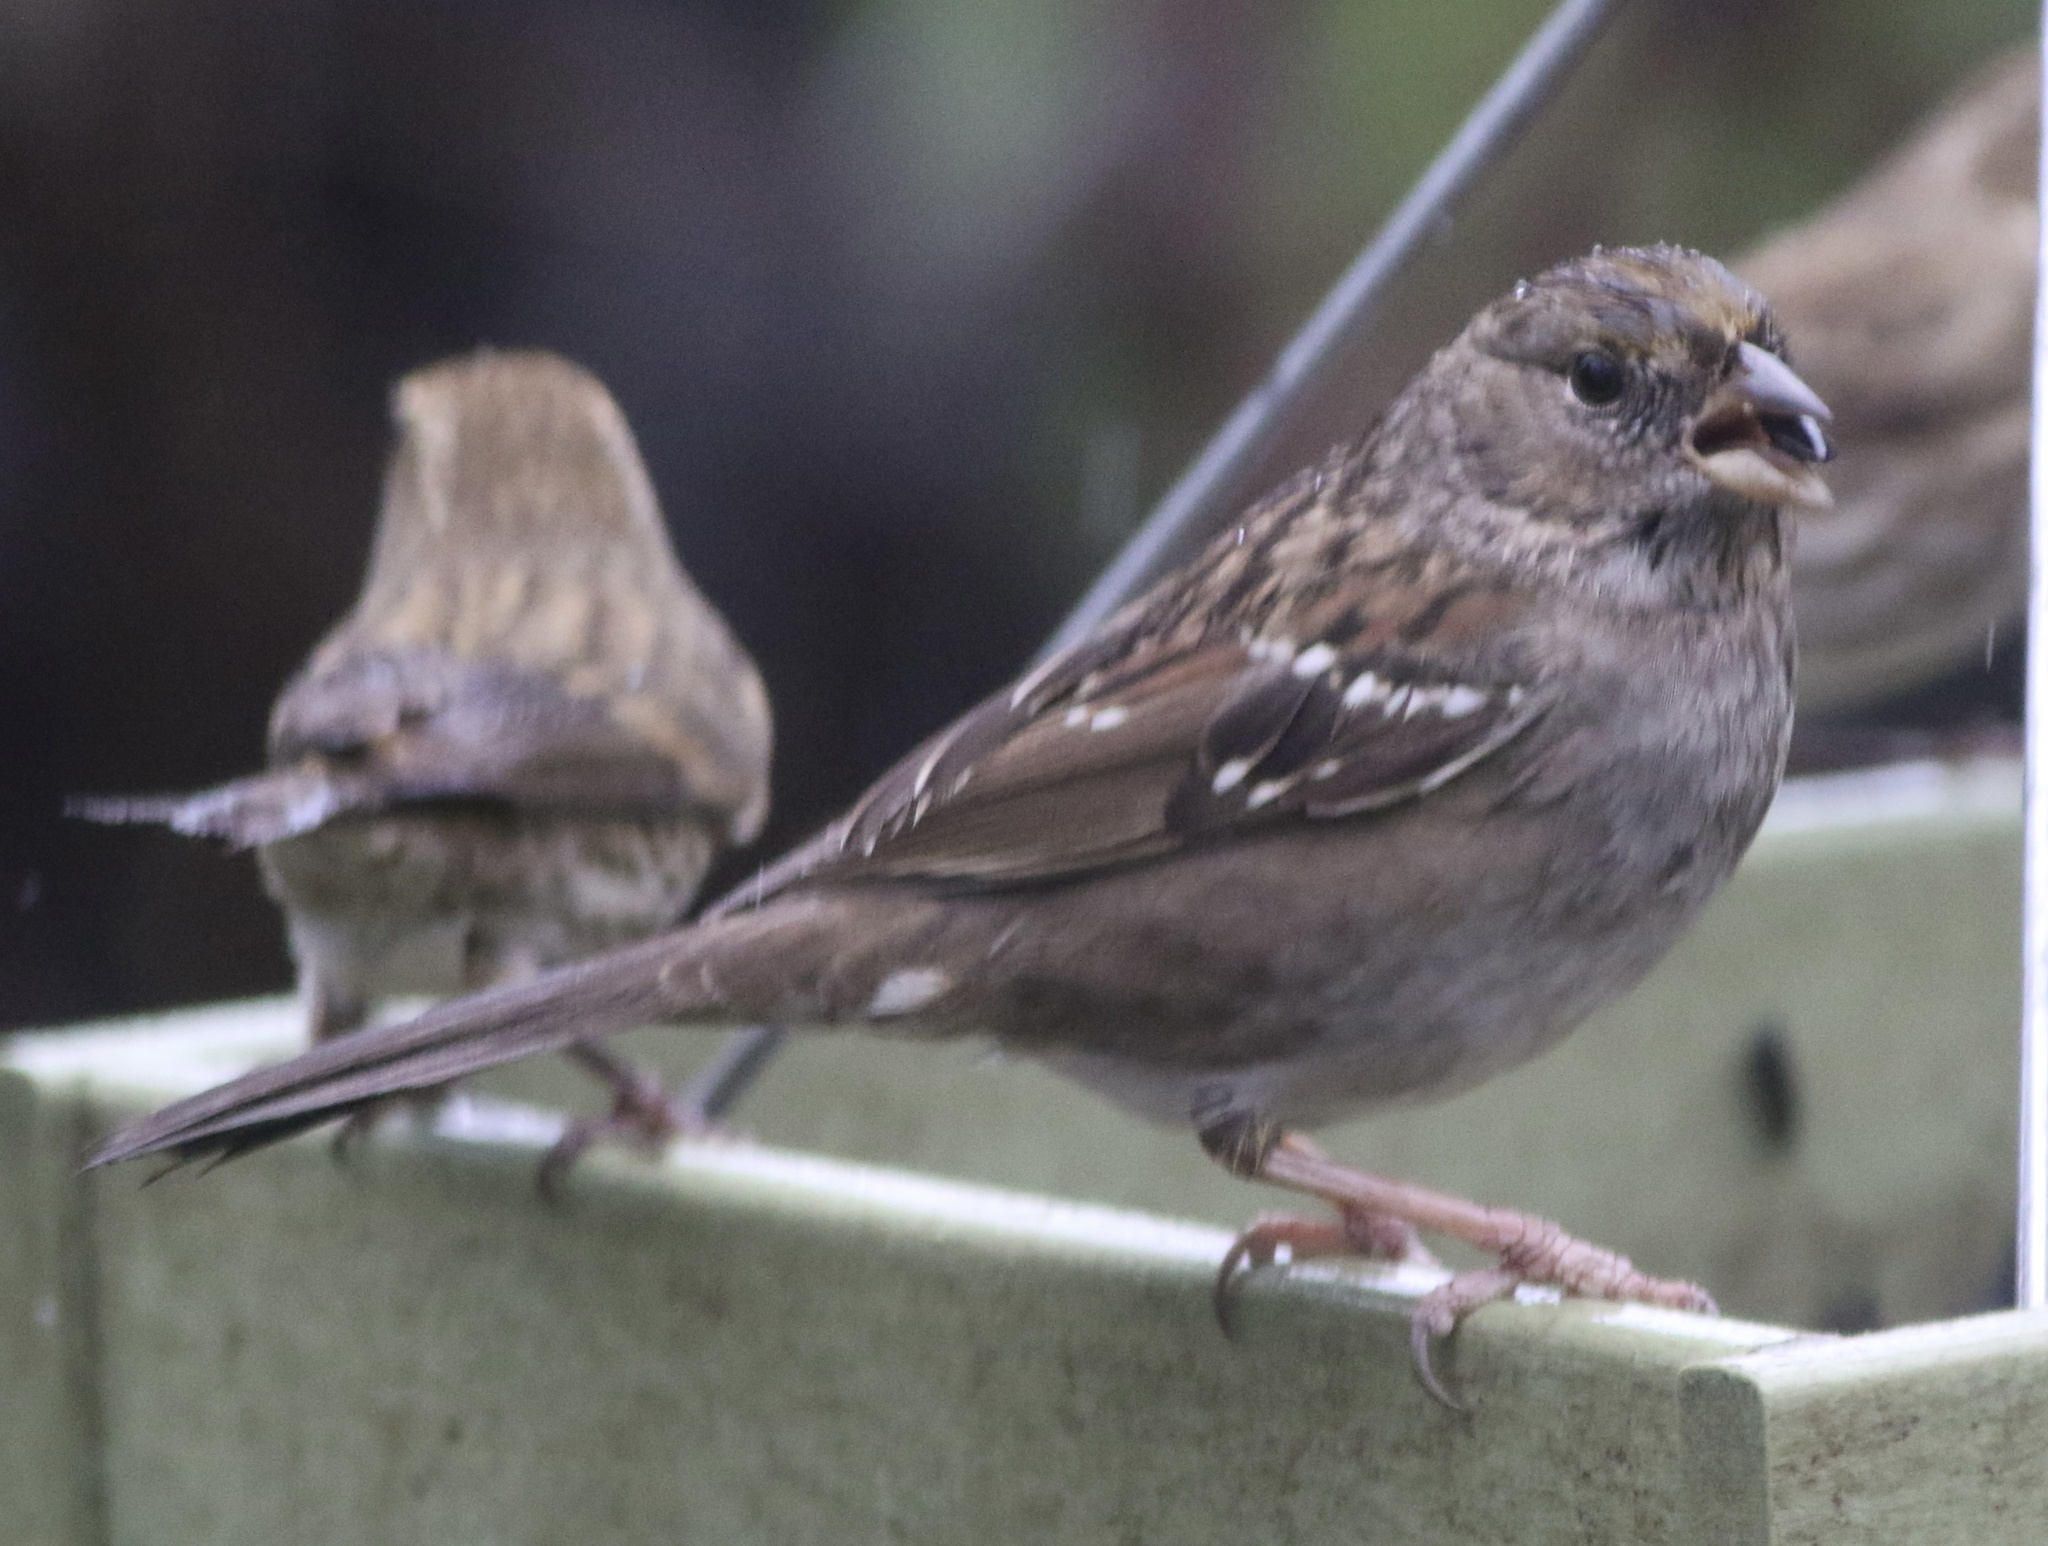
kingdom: Animalia
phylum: Chordata
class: Aves
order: Passeriformes
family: Passerellidae
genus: Zonotrichia
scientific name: Zonotrichia atricapilla
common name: Golden-crowned sparrow
